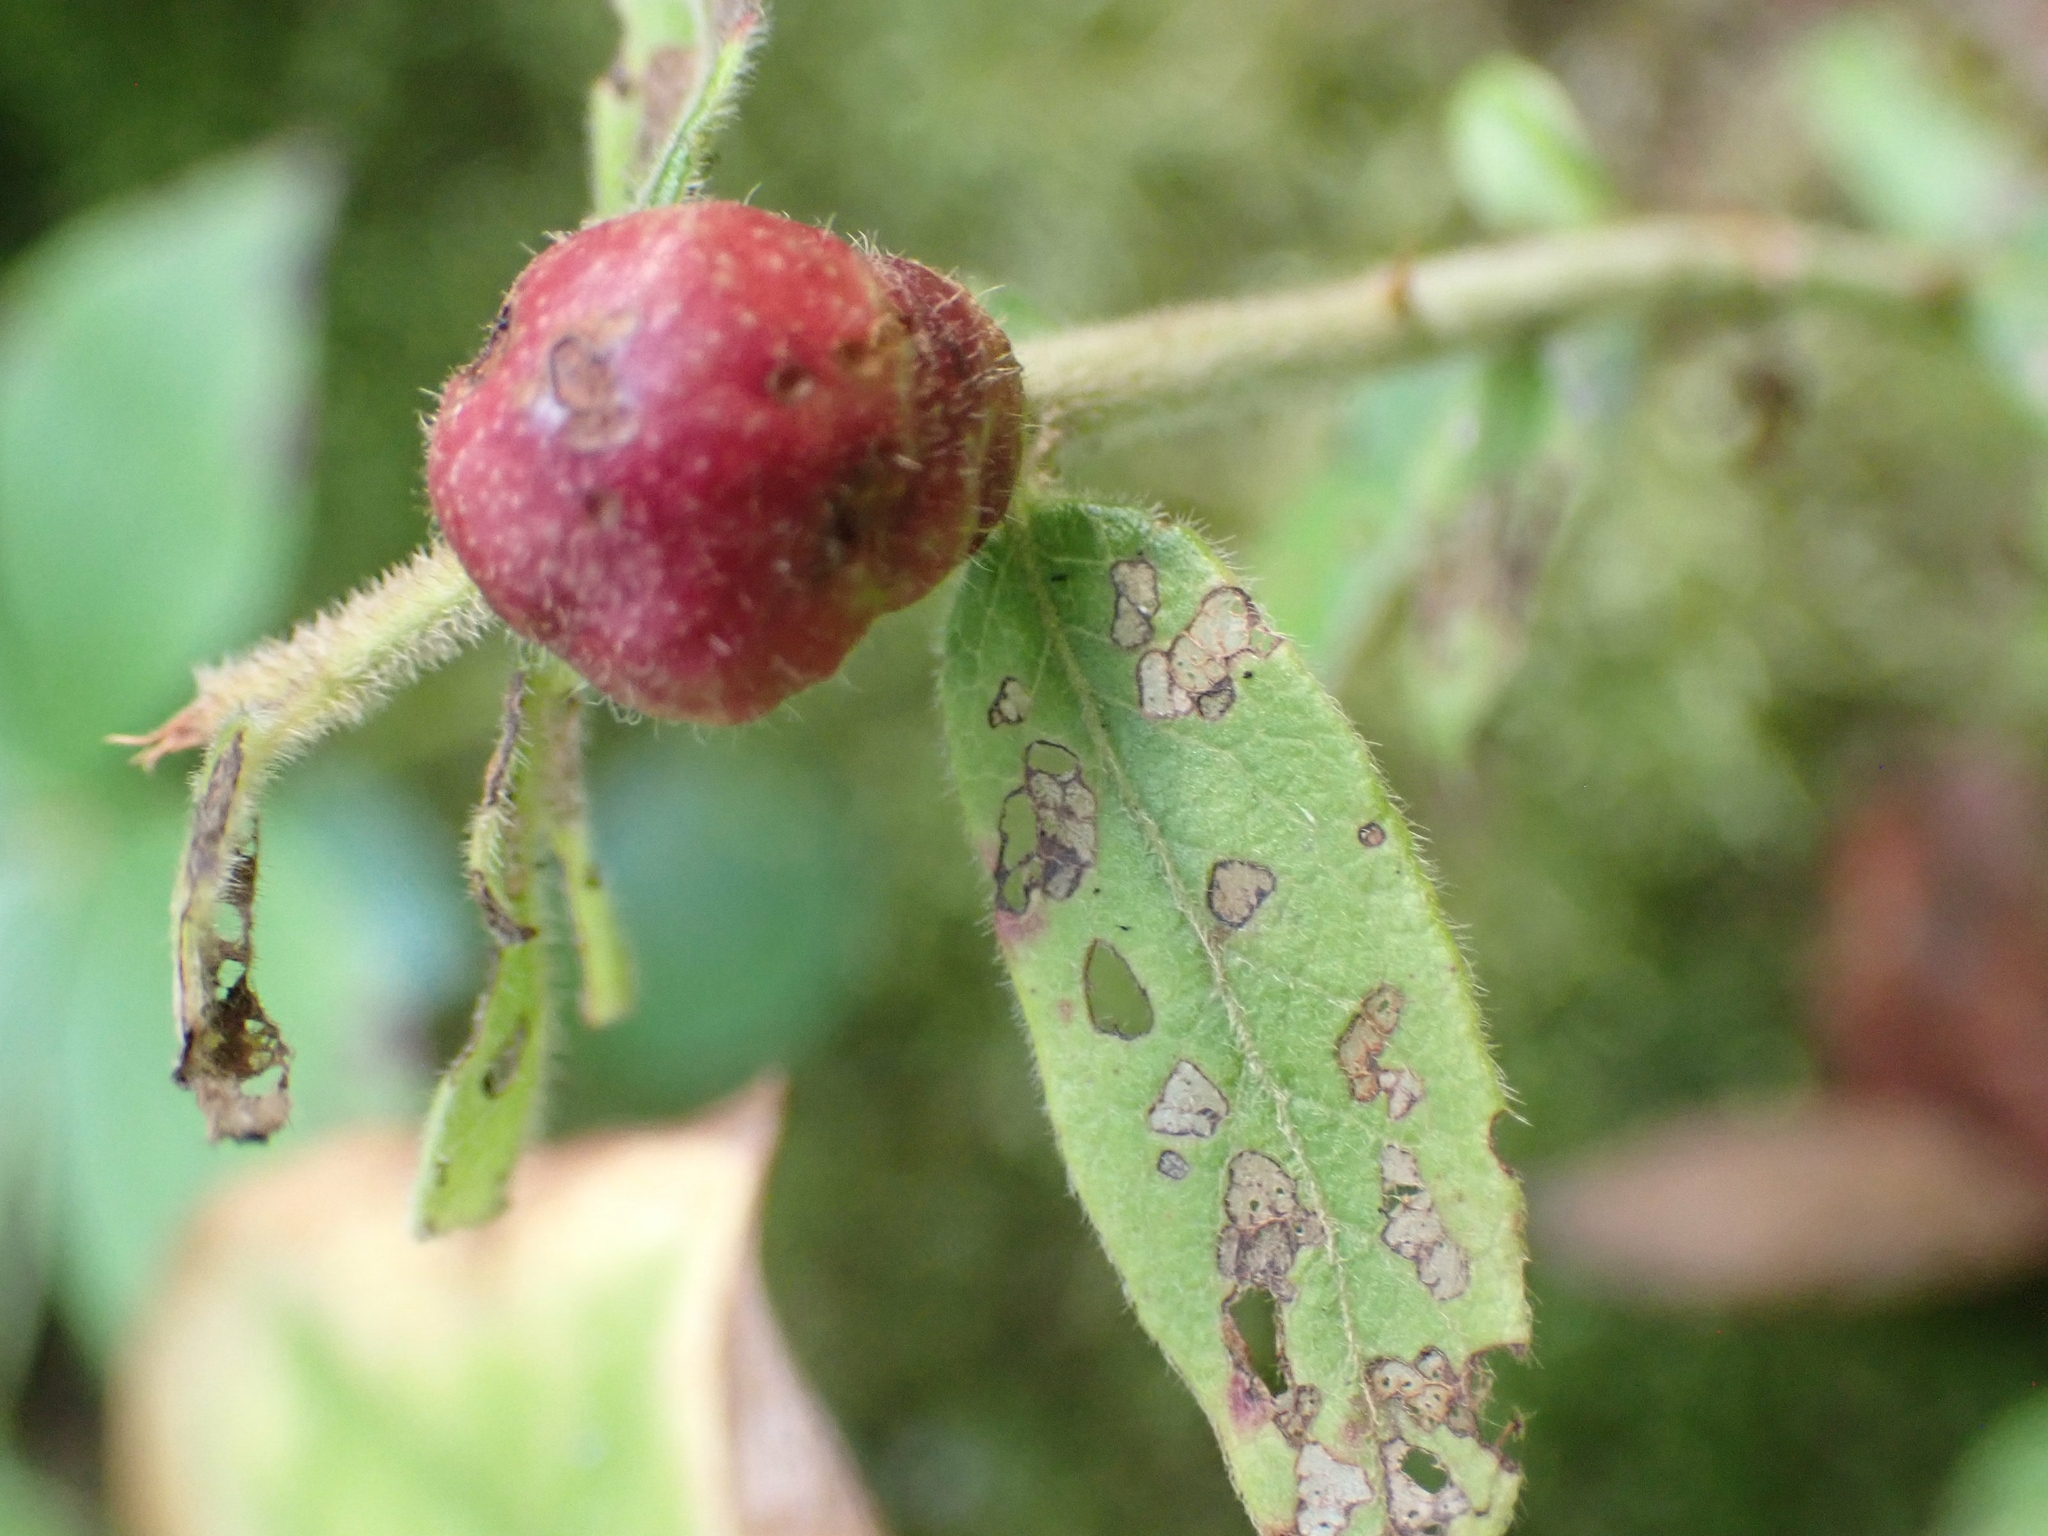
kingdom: Animalia
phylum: Arthropoda
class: Insecta
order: Hymenoptera
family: Pteromalidae
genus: Hemadas
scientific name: Hemadas nubilipennis
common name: Blueberry stem gall wasp
